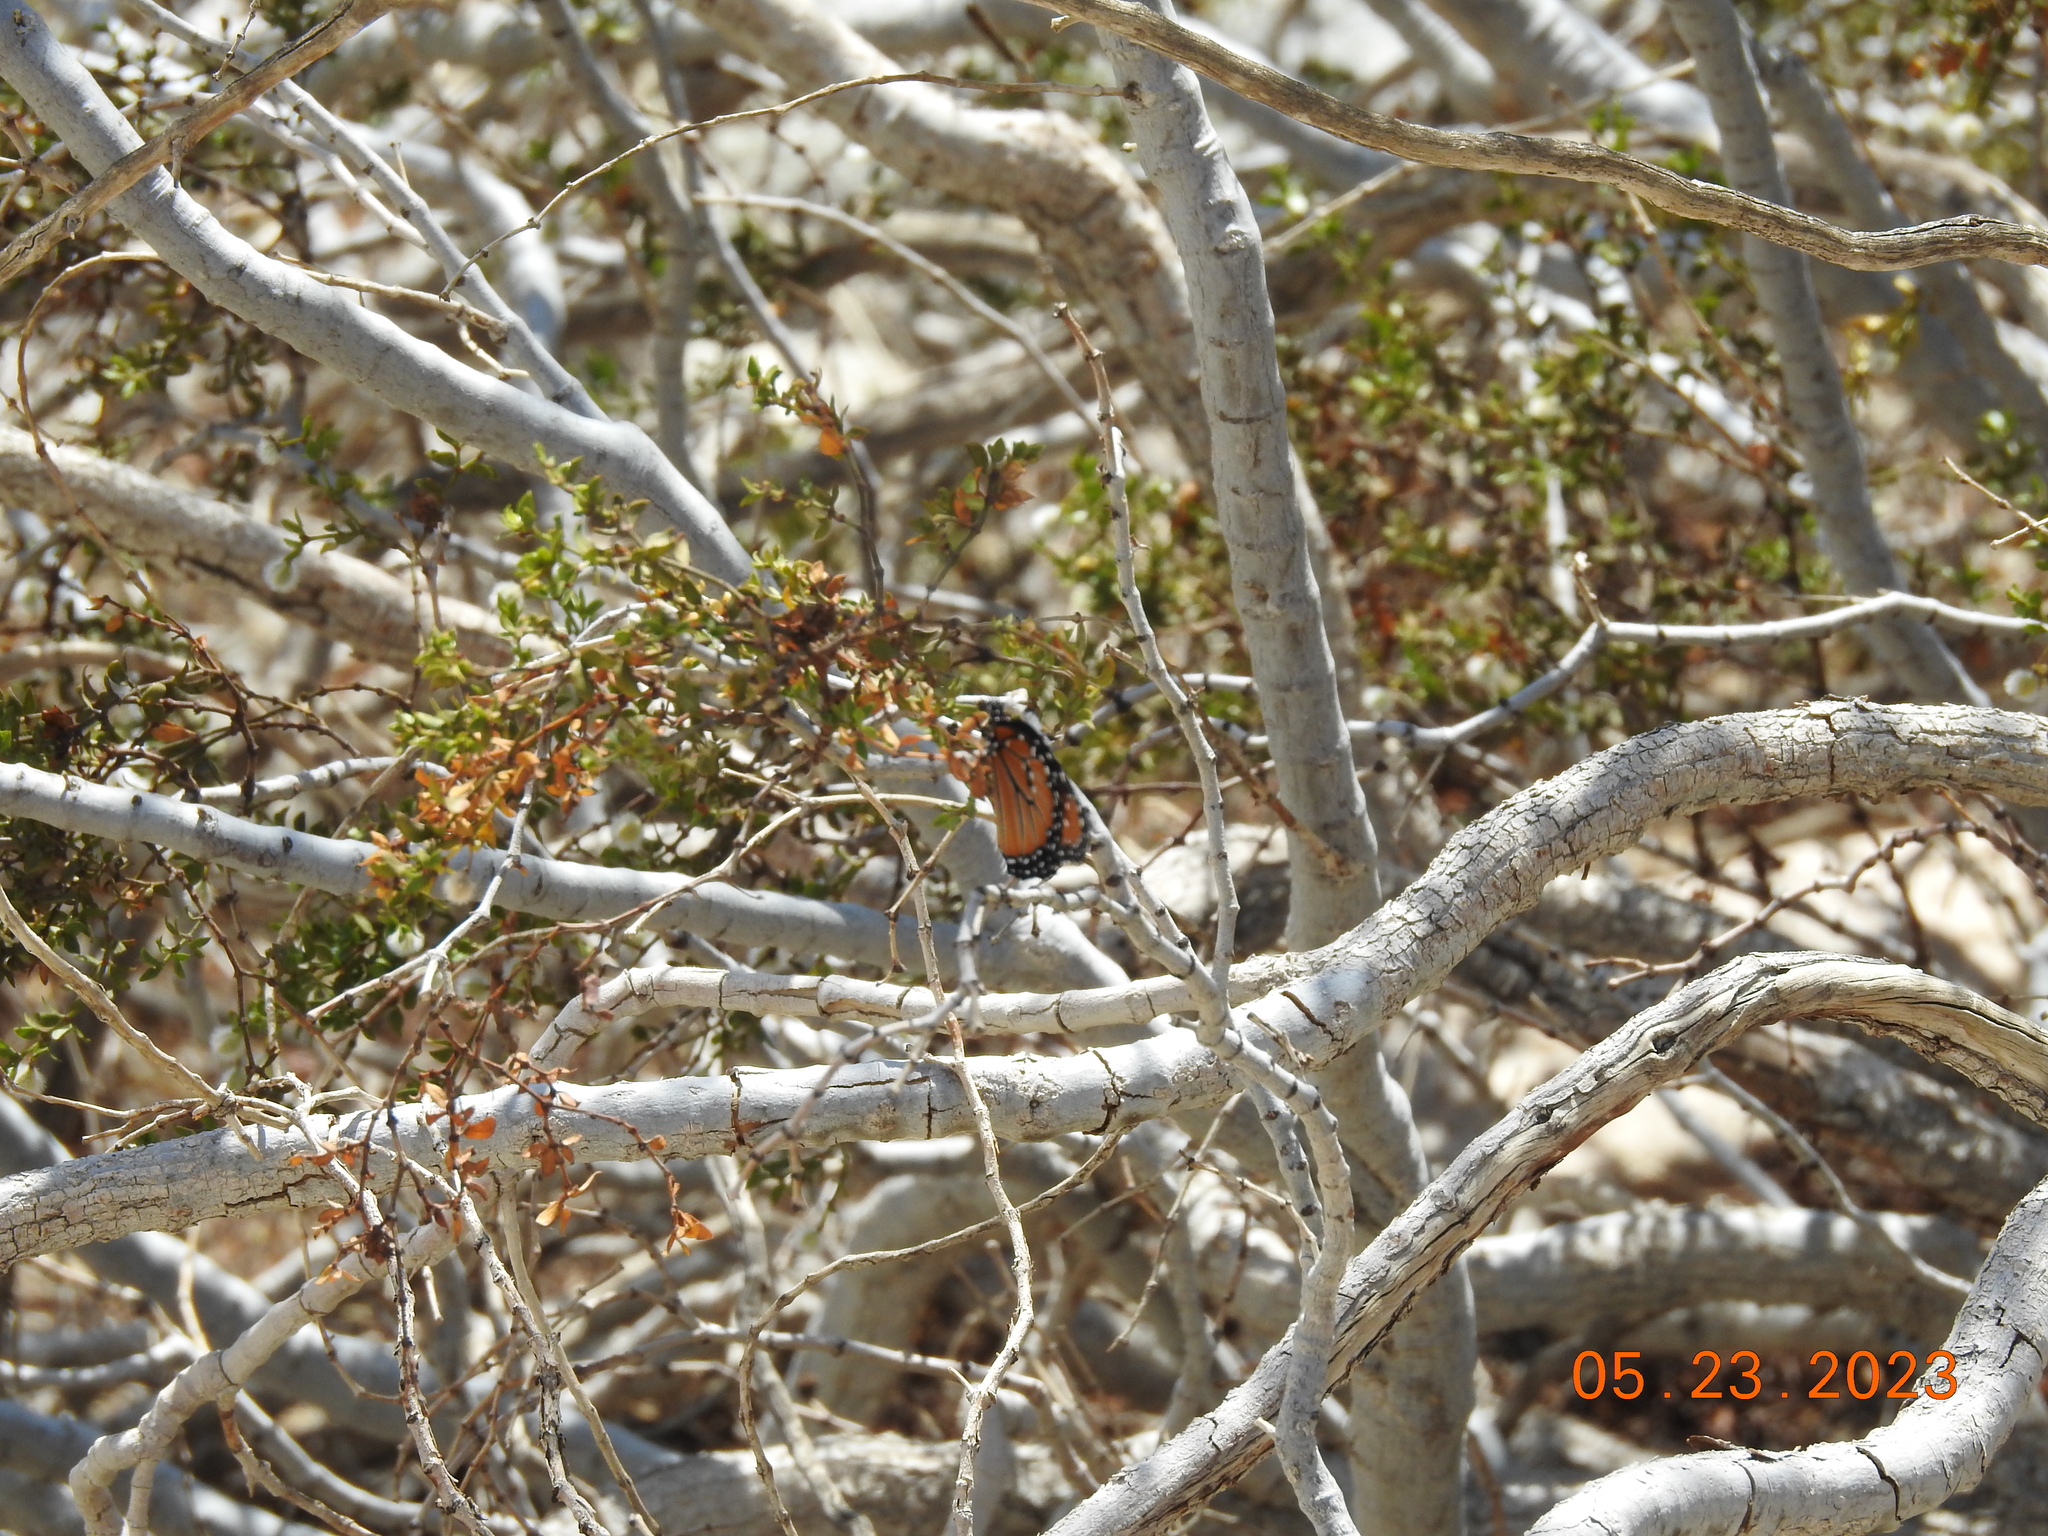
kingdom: Animalia
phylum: Arthropoda
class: Insecta
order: Lepidoptera
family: Nymphalidae
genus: Danaus
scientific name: Danaus gilippus
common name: Queen
